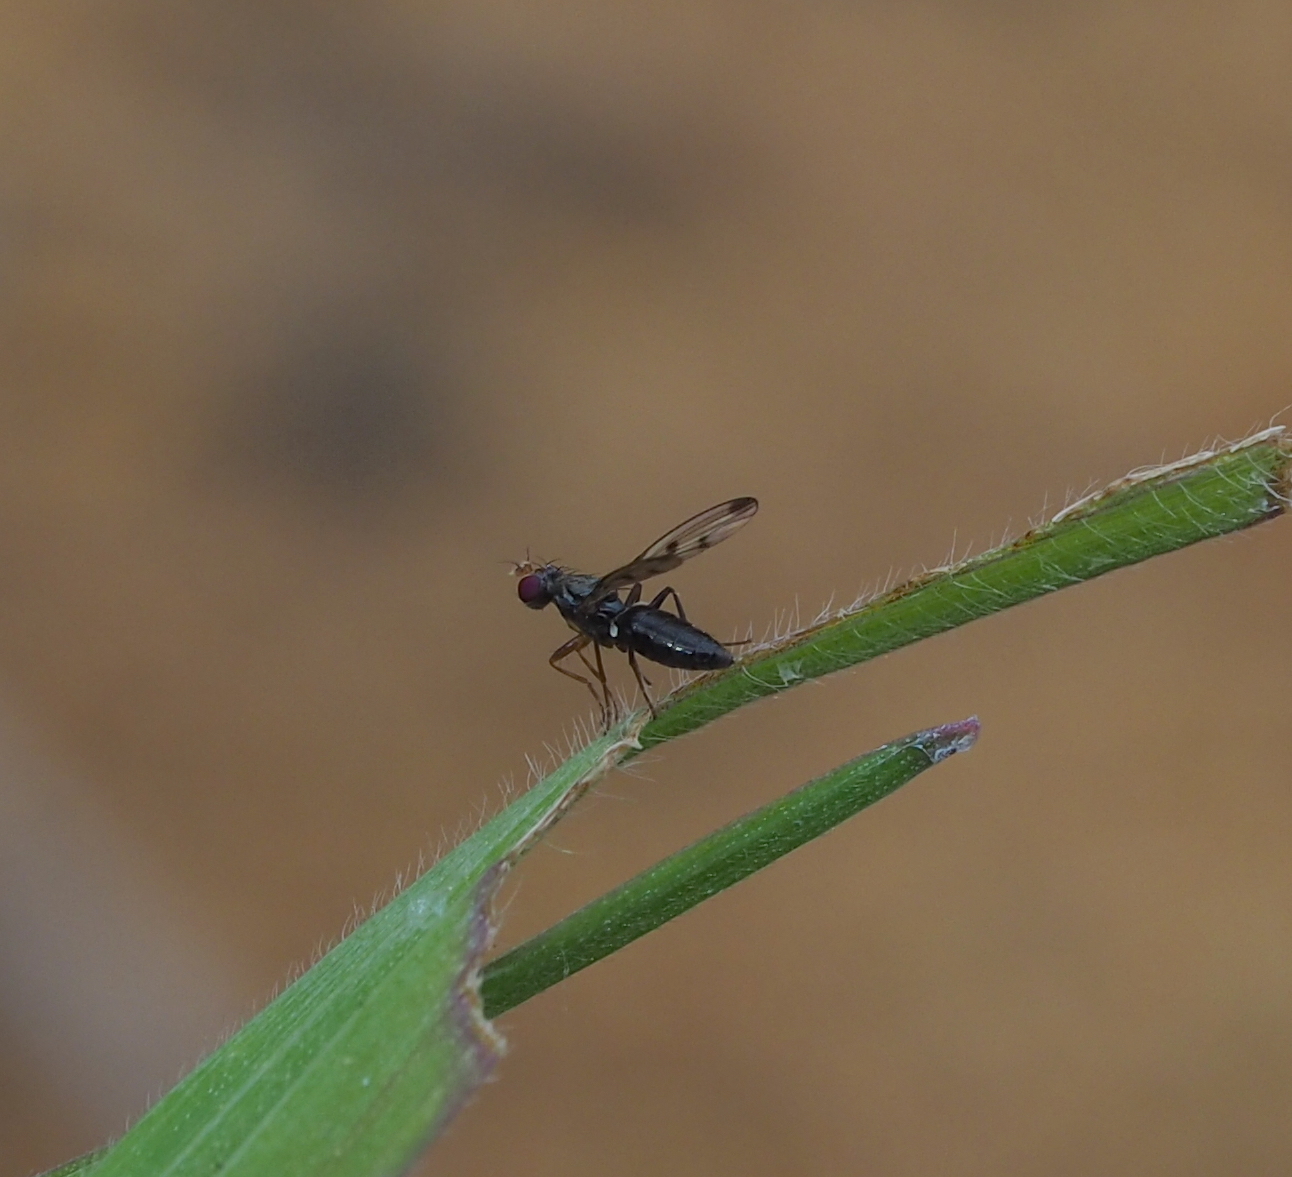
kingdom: Animalia
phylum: Arthropoda
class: Insecta
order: Diptera
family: Opomyzidae
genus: Geomyza
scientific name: Geomyza tripunctata
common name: Cereal fly
